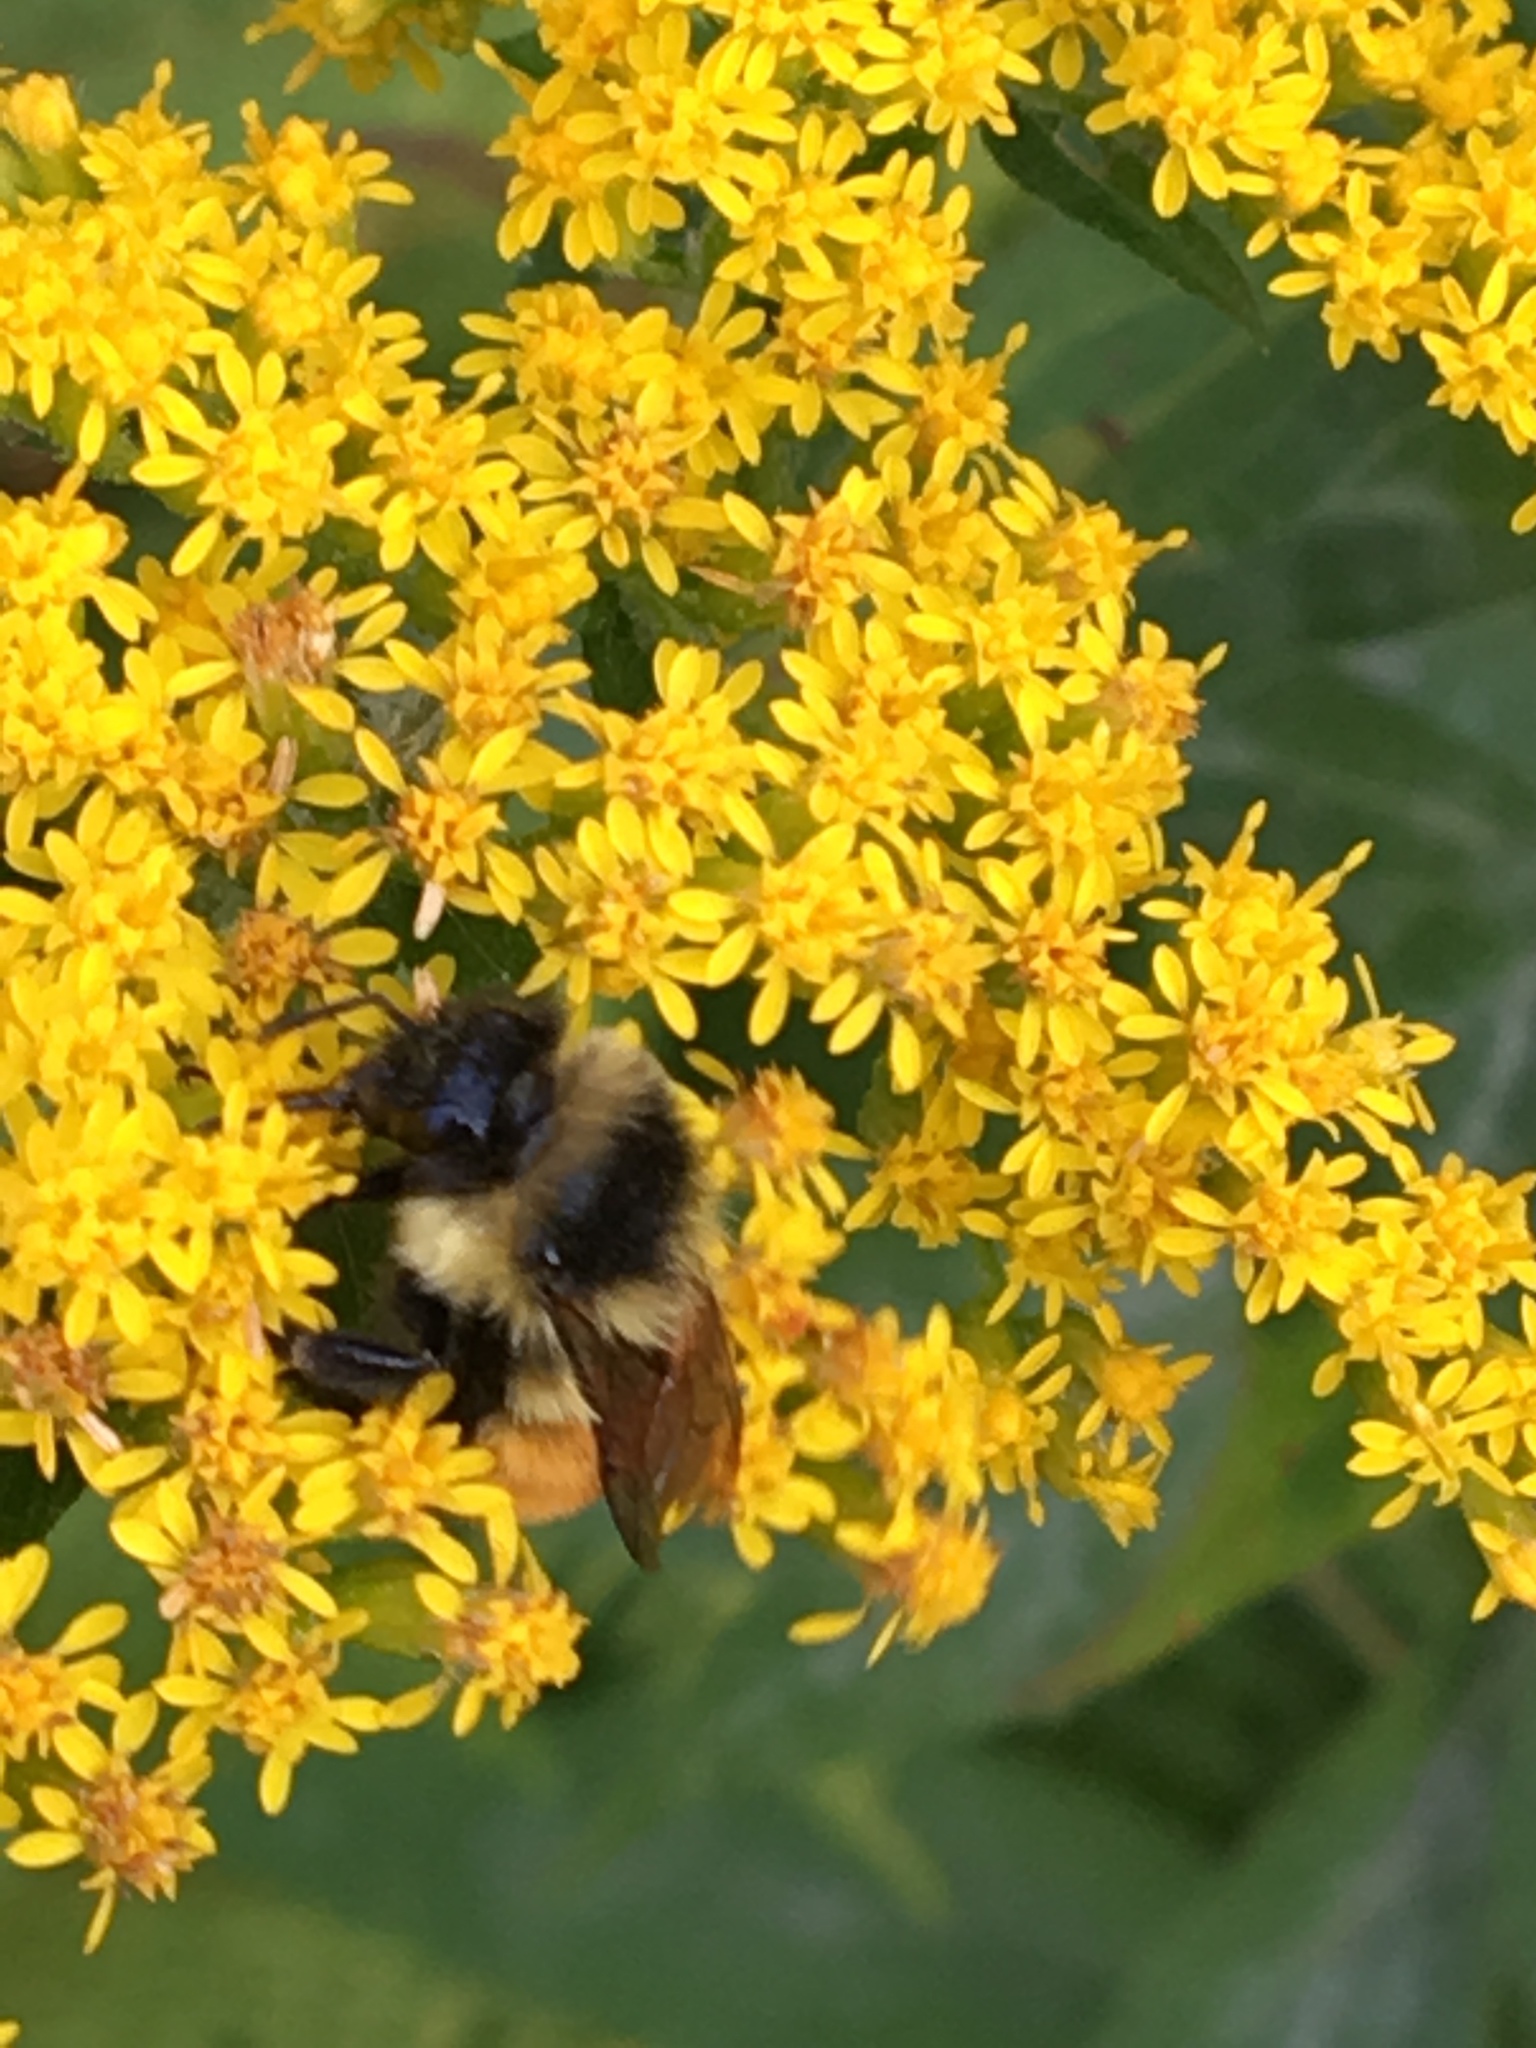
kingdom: Animalia
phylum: Arthropoda
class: Insecta
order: Hymenoptera
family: Apidae
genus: Bombus
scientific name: Bombus ternarius
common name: Tri-colored bumble bee
